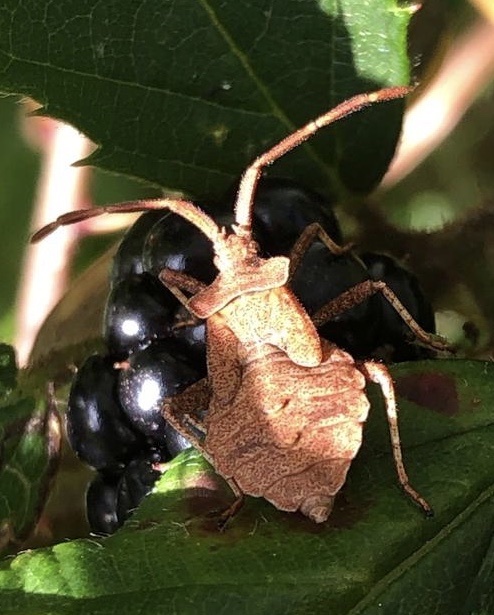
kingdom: Animalia
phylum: Arthropoda
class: Insecta
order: Hemiptera
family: Coreidae
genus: Coreus
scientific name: Coreus marginatus
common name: Dock bug
